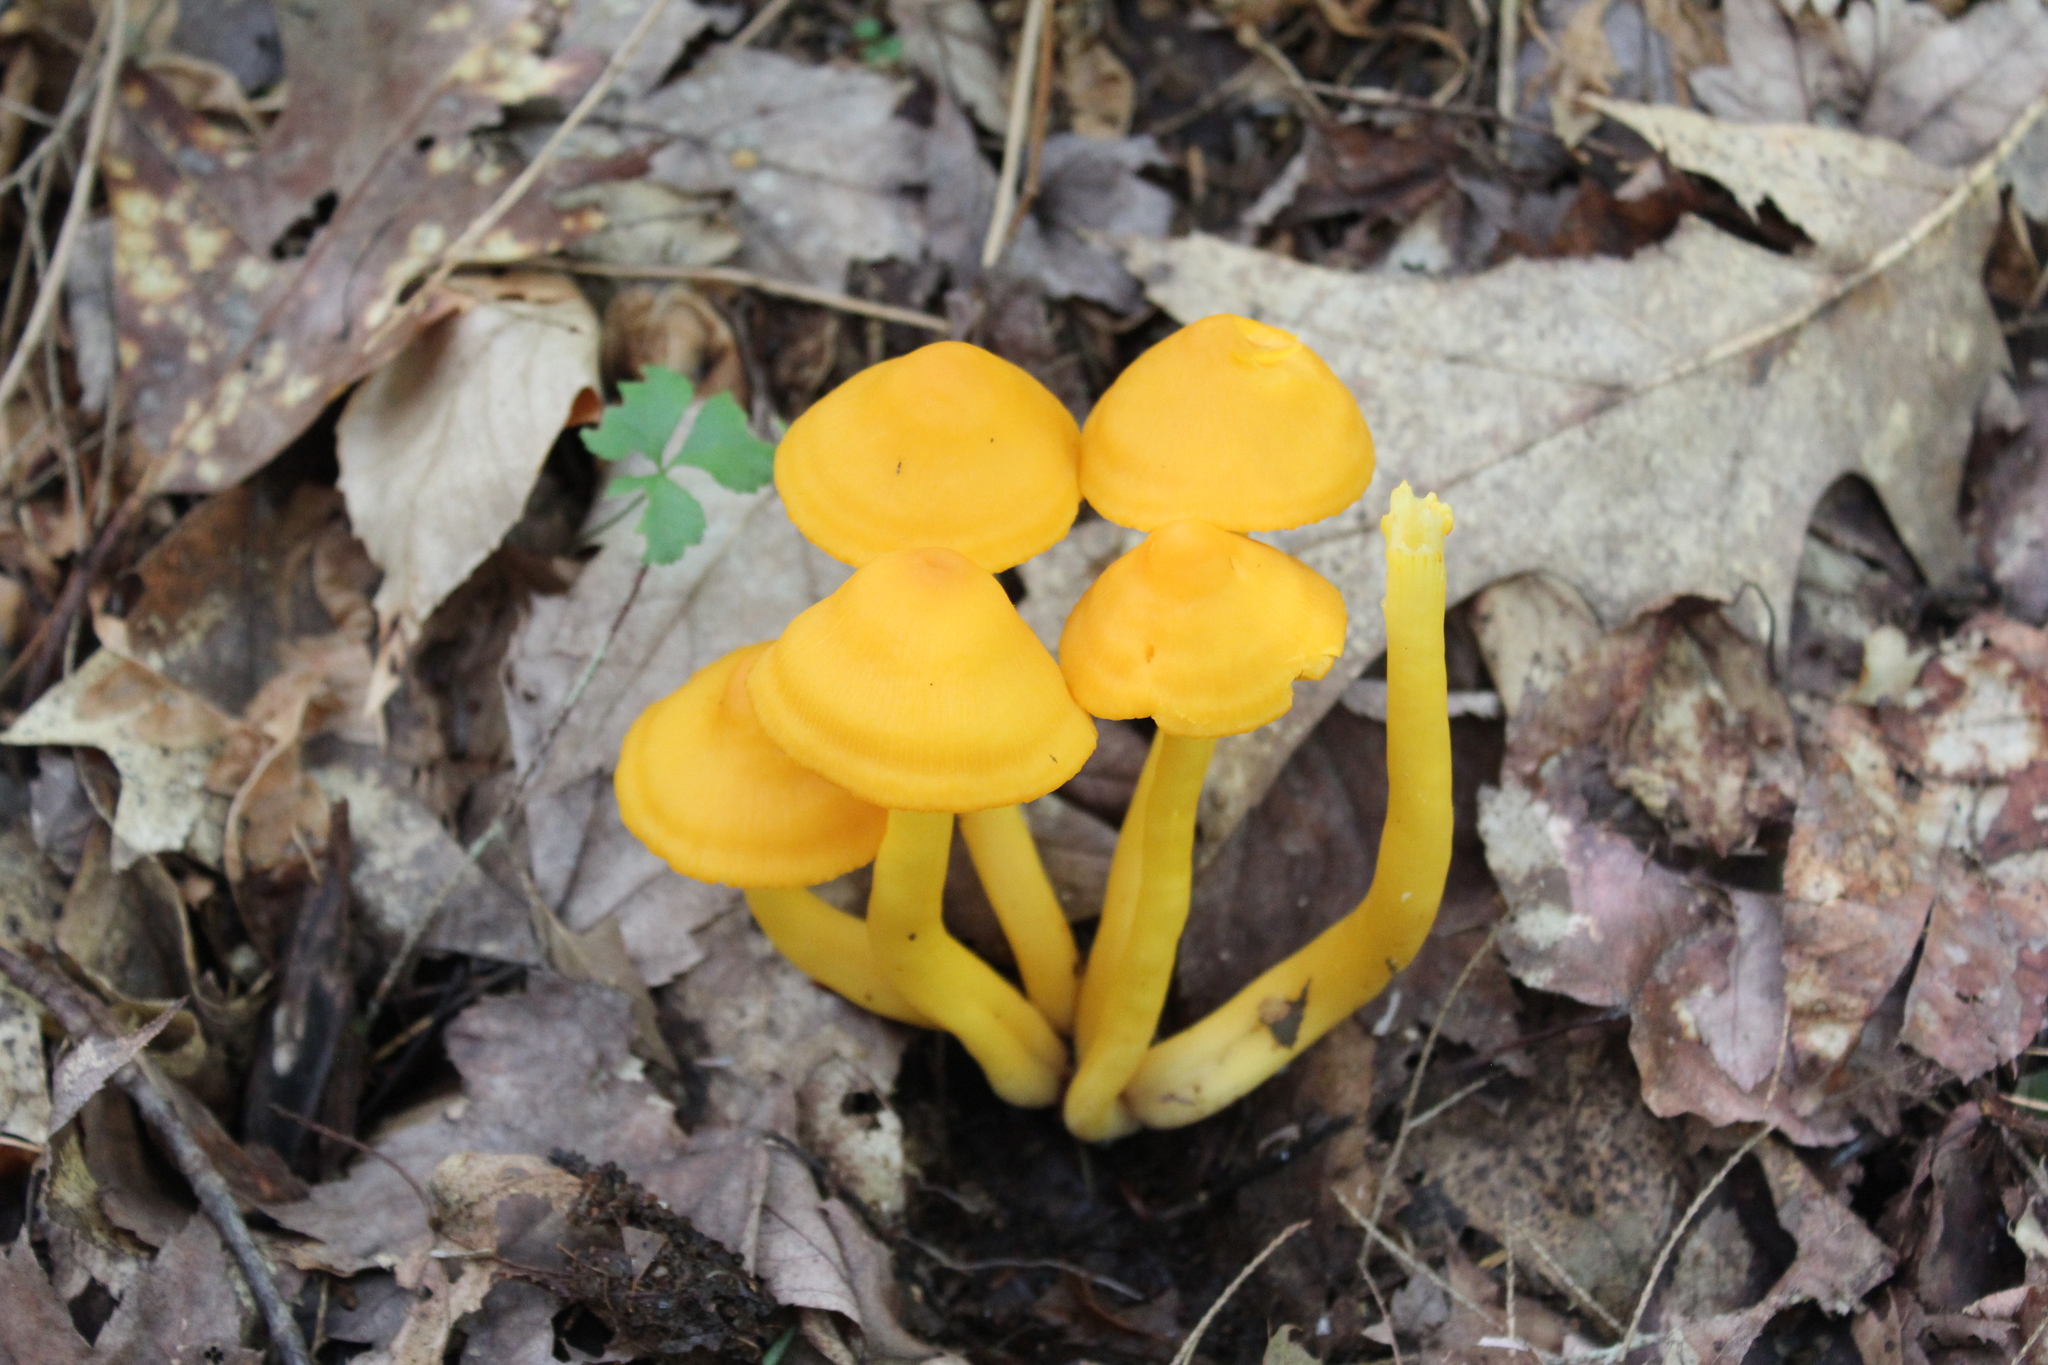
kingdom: Fungi
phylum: Basidiomycota
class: Agaricomycetes
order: Agaricales
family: Hygrophoraceae
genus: Humidicutis
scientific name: Humidicutis marginata
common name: Orange gilled waxcap
